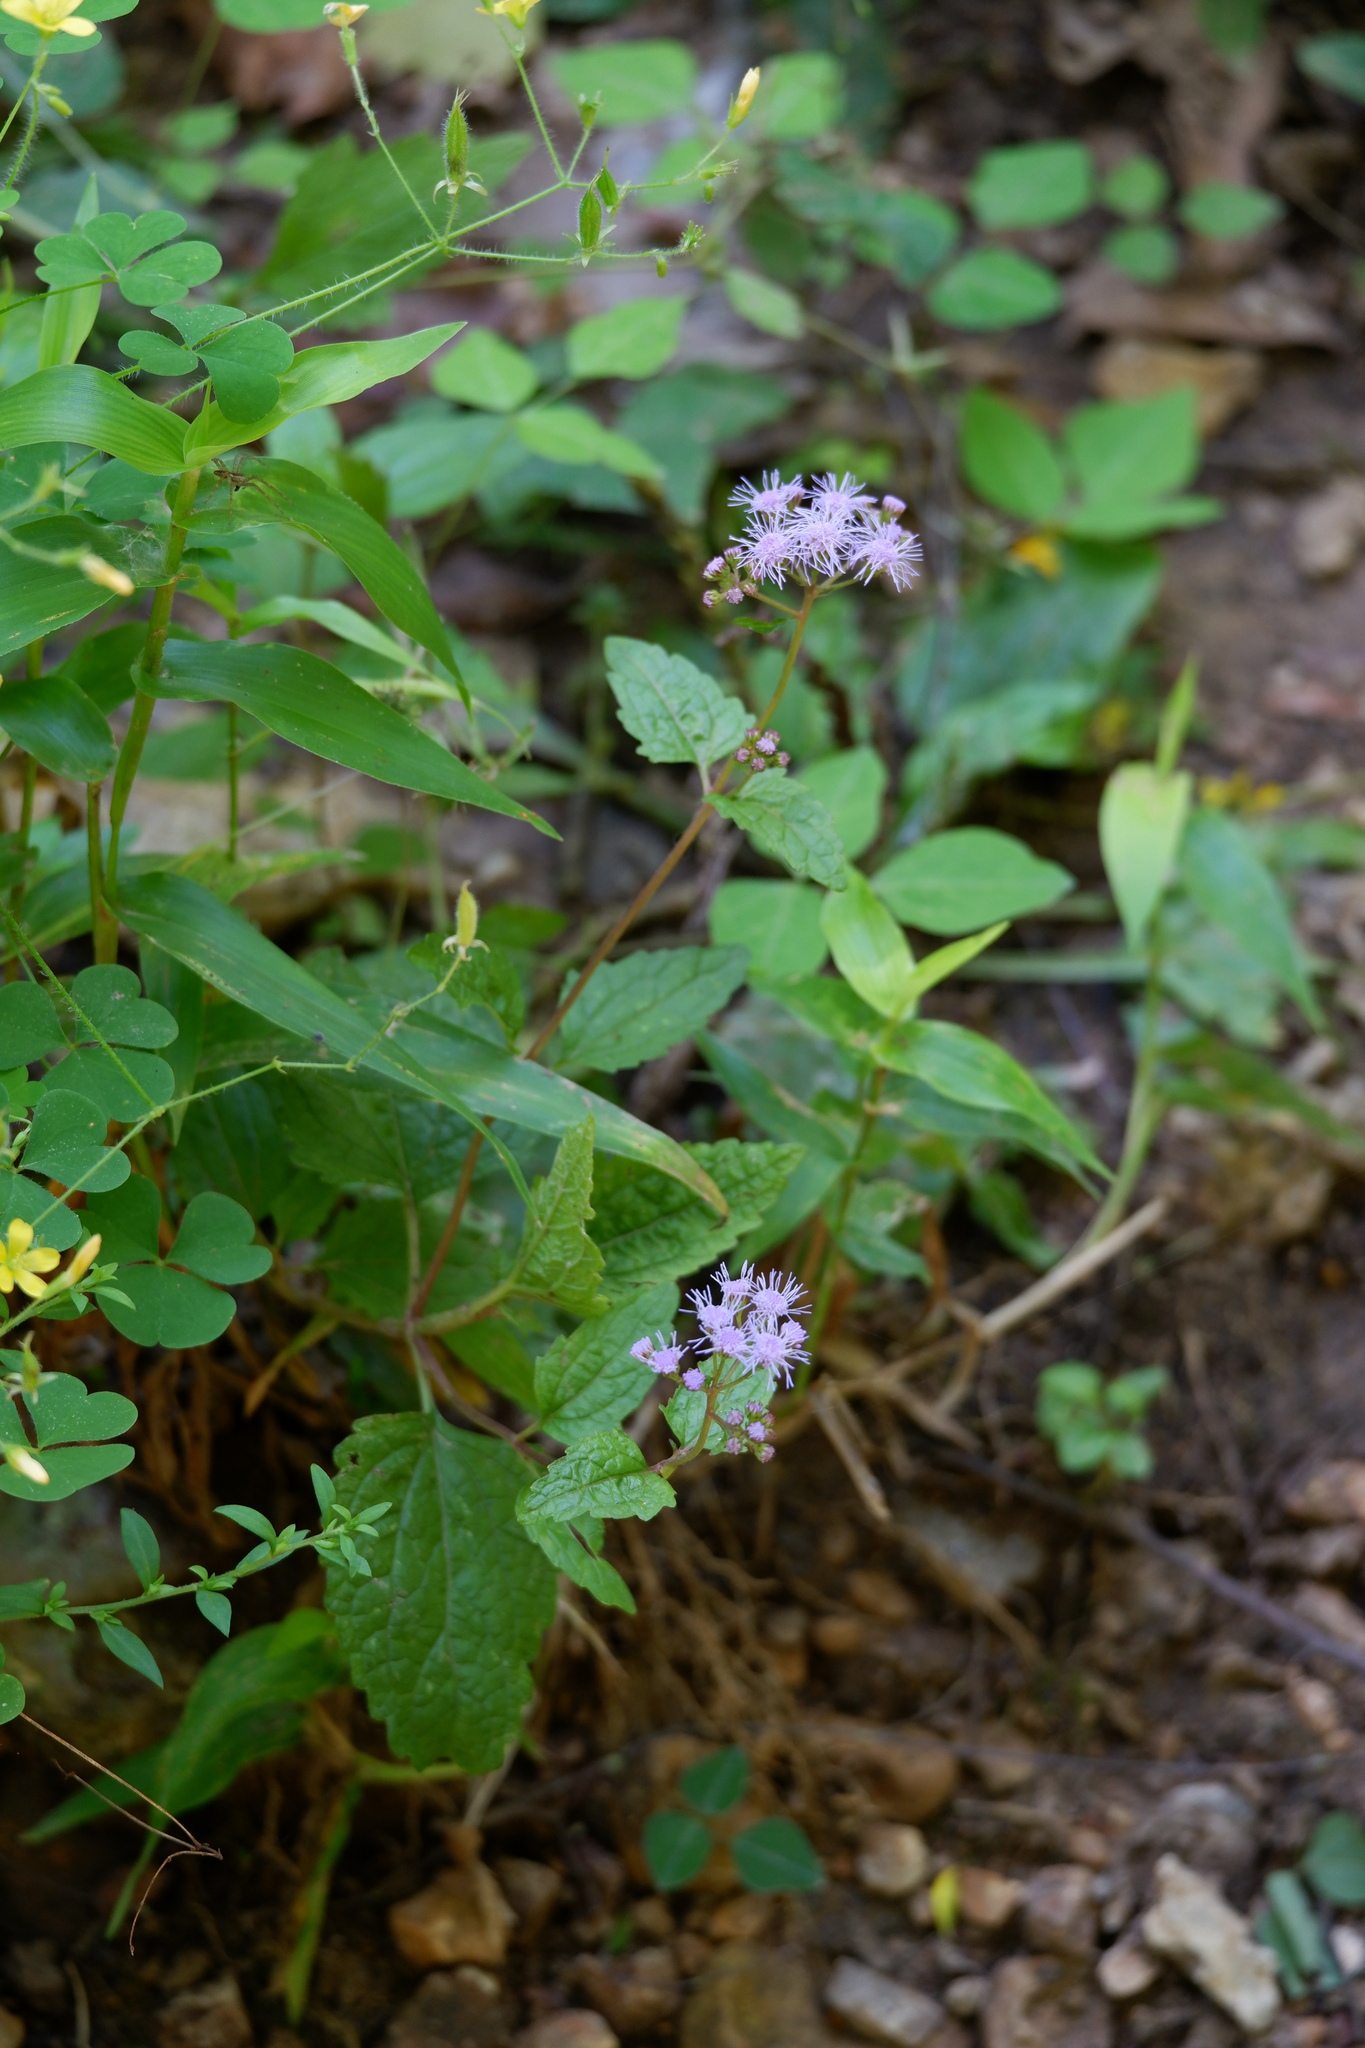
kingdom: Plantae
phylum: Tracheophyta
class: Magnoliopsida
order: Asterales
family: Asteraceae
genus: Conoclinium
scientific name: Conoclinium coelestinum
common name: Blue mistflower
